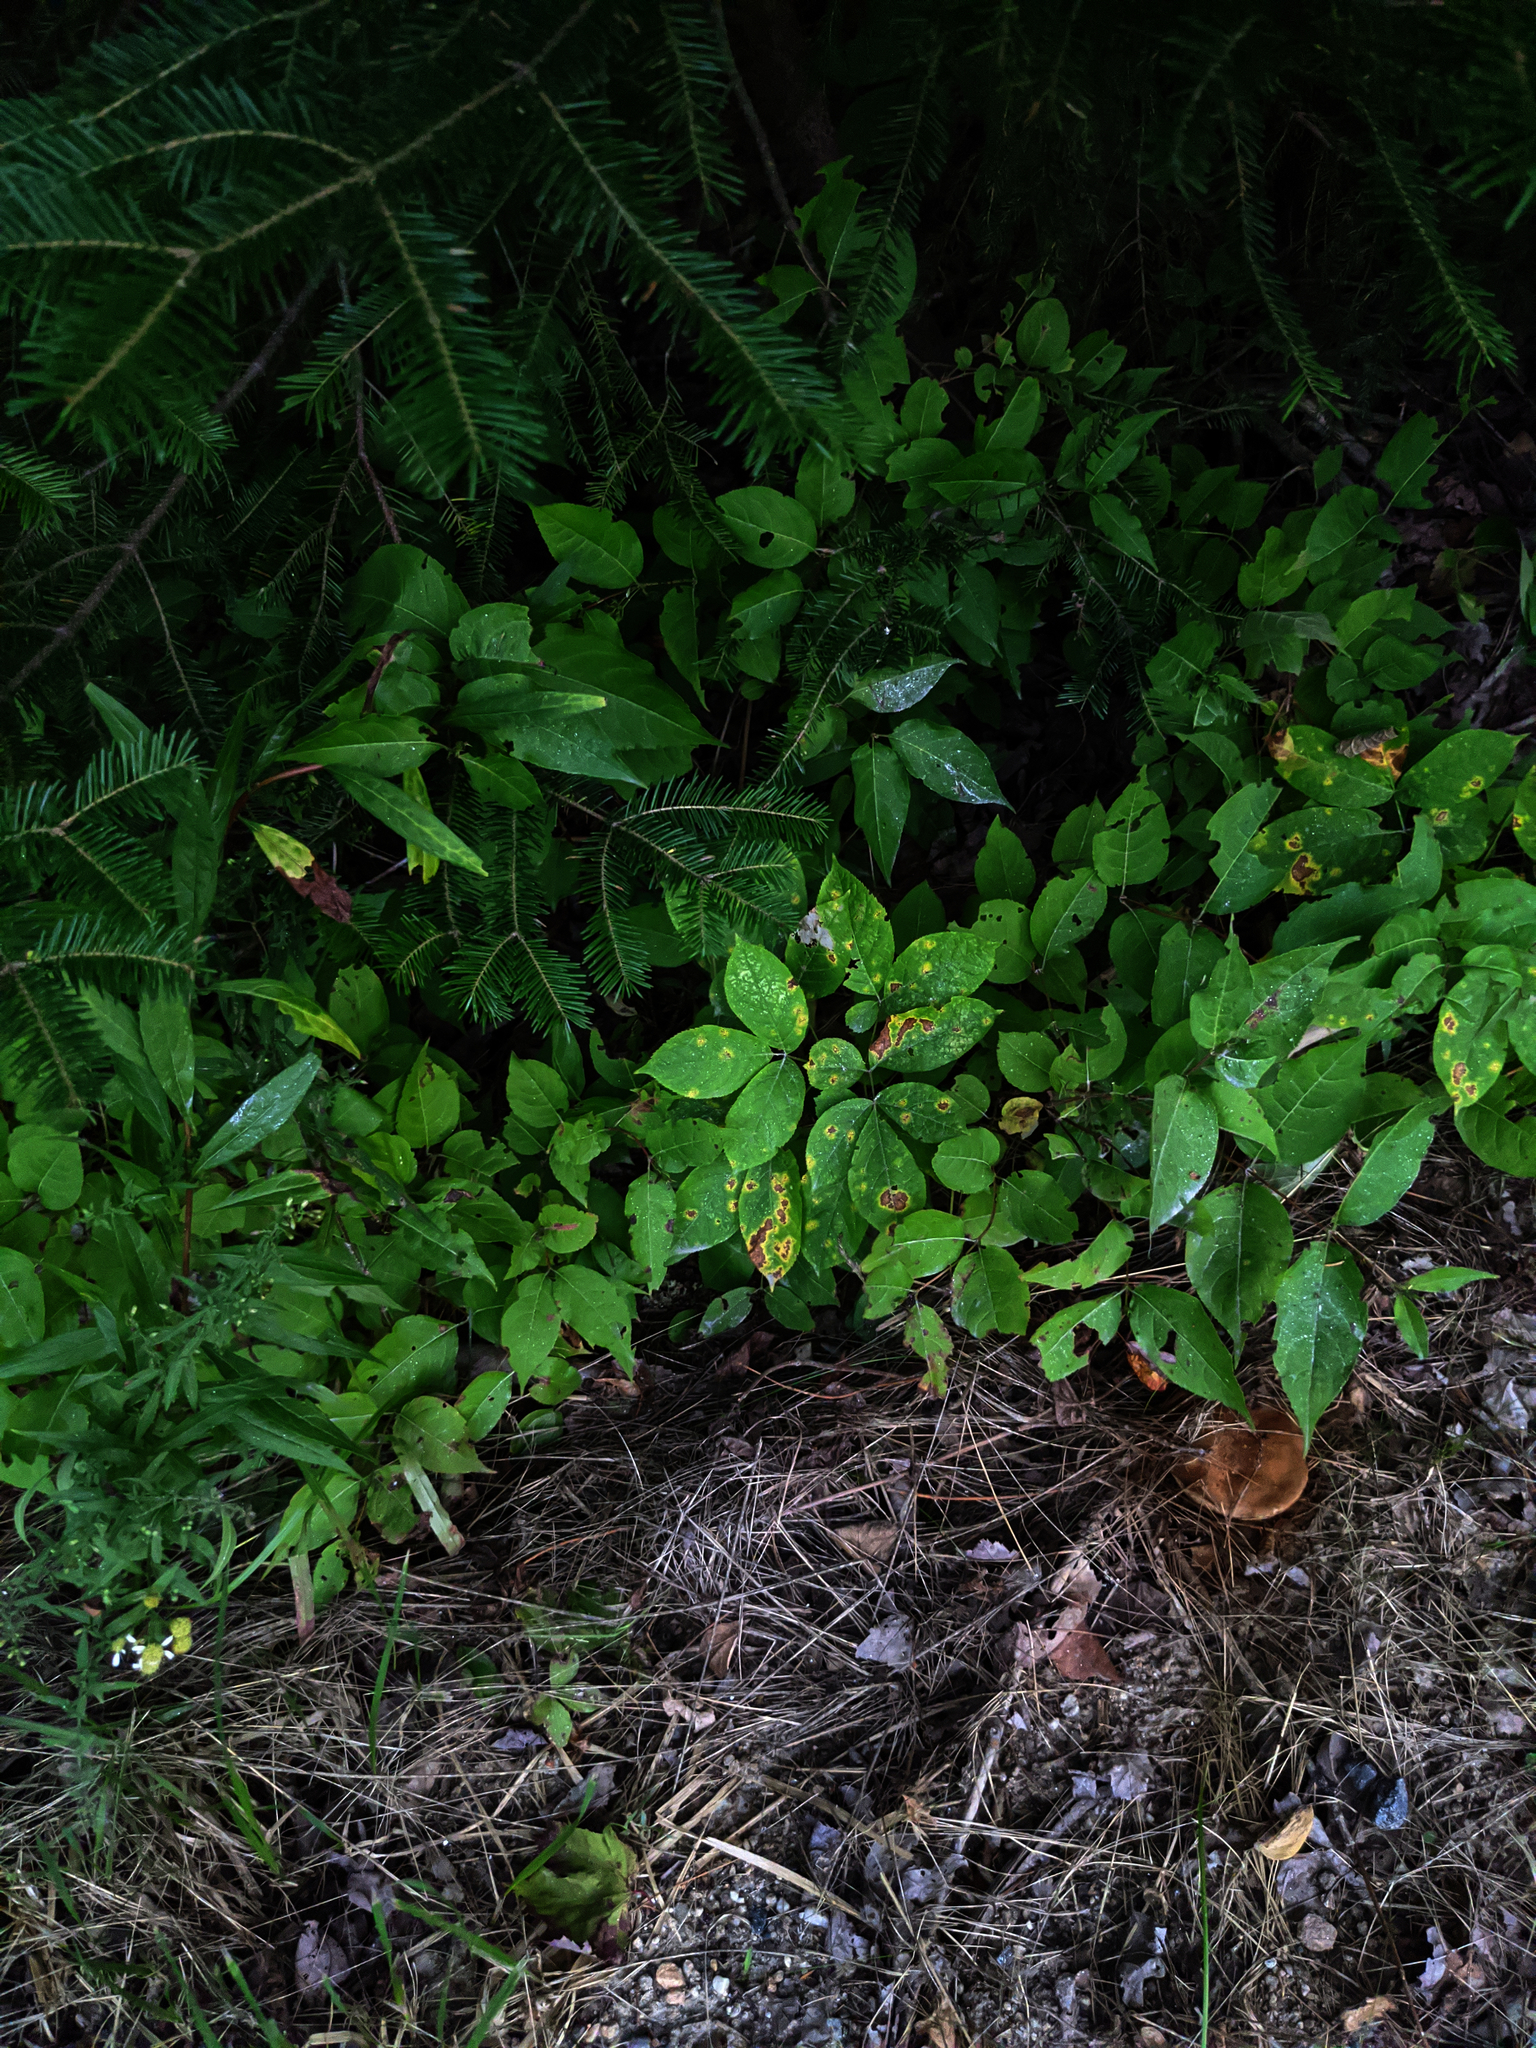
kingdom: Plantae
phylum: Tracheophyta
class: Magnoliopsida
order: Apiales
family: Araliaceae
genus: Aralia
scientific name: Aralia nudicaulis
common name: Wild sarsaparilla
